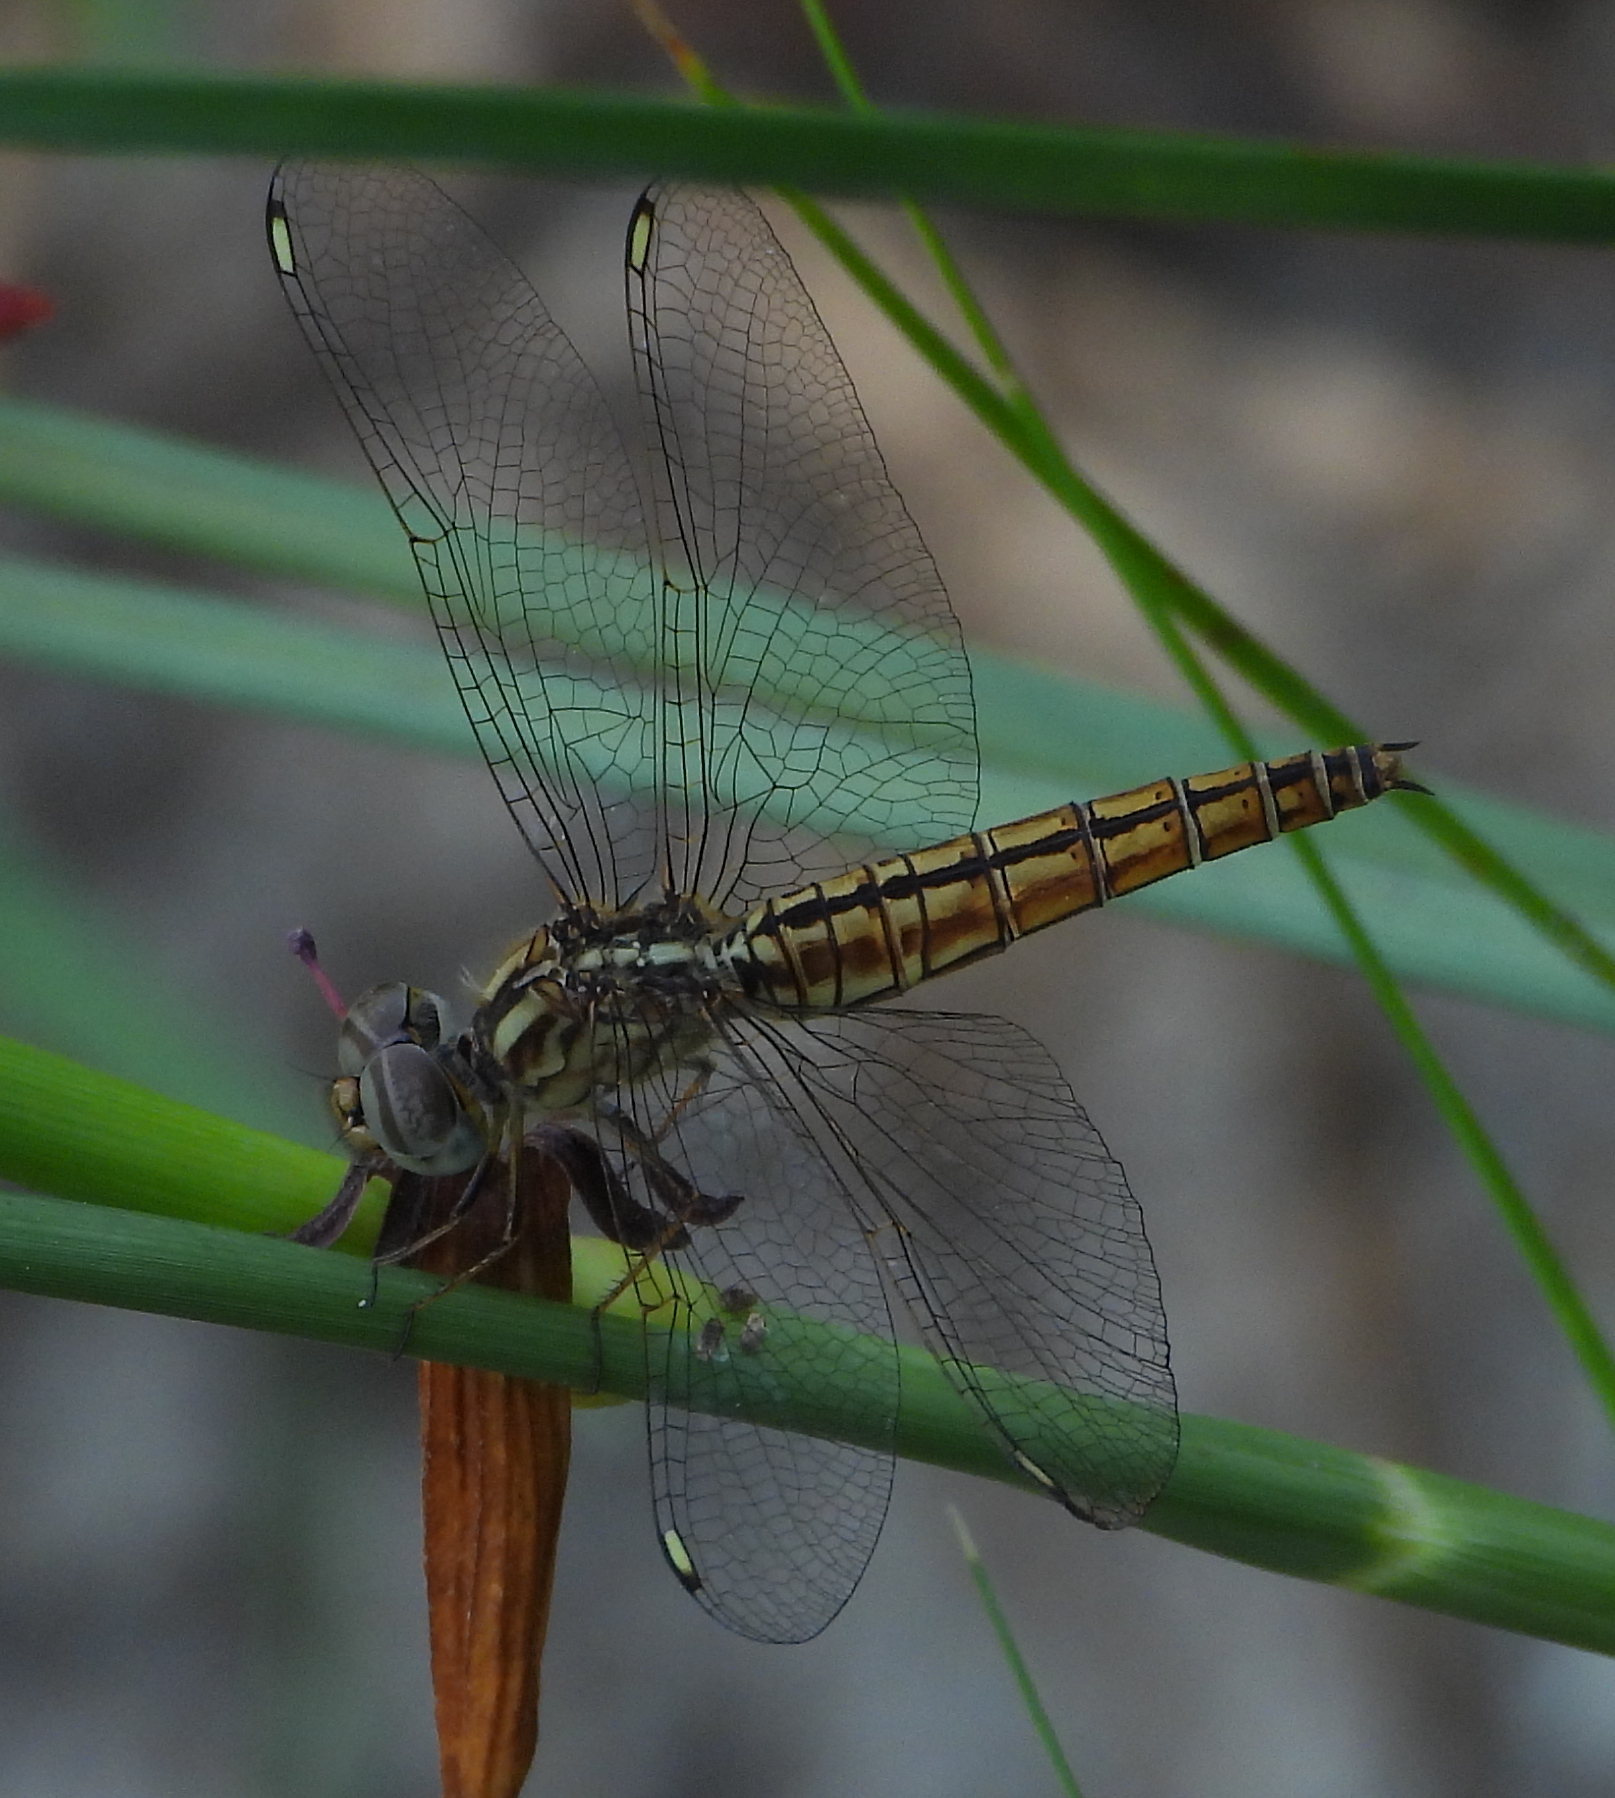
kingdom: Animalia
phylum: Arthropoda
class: Insecta
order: Odonata
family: Libellulidae
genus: Brachythemis
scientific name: Brachythemis lacustris
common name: Red groundling
